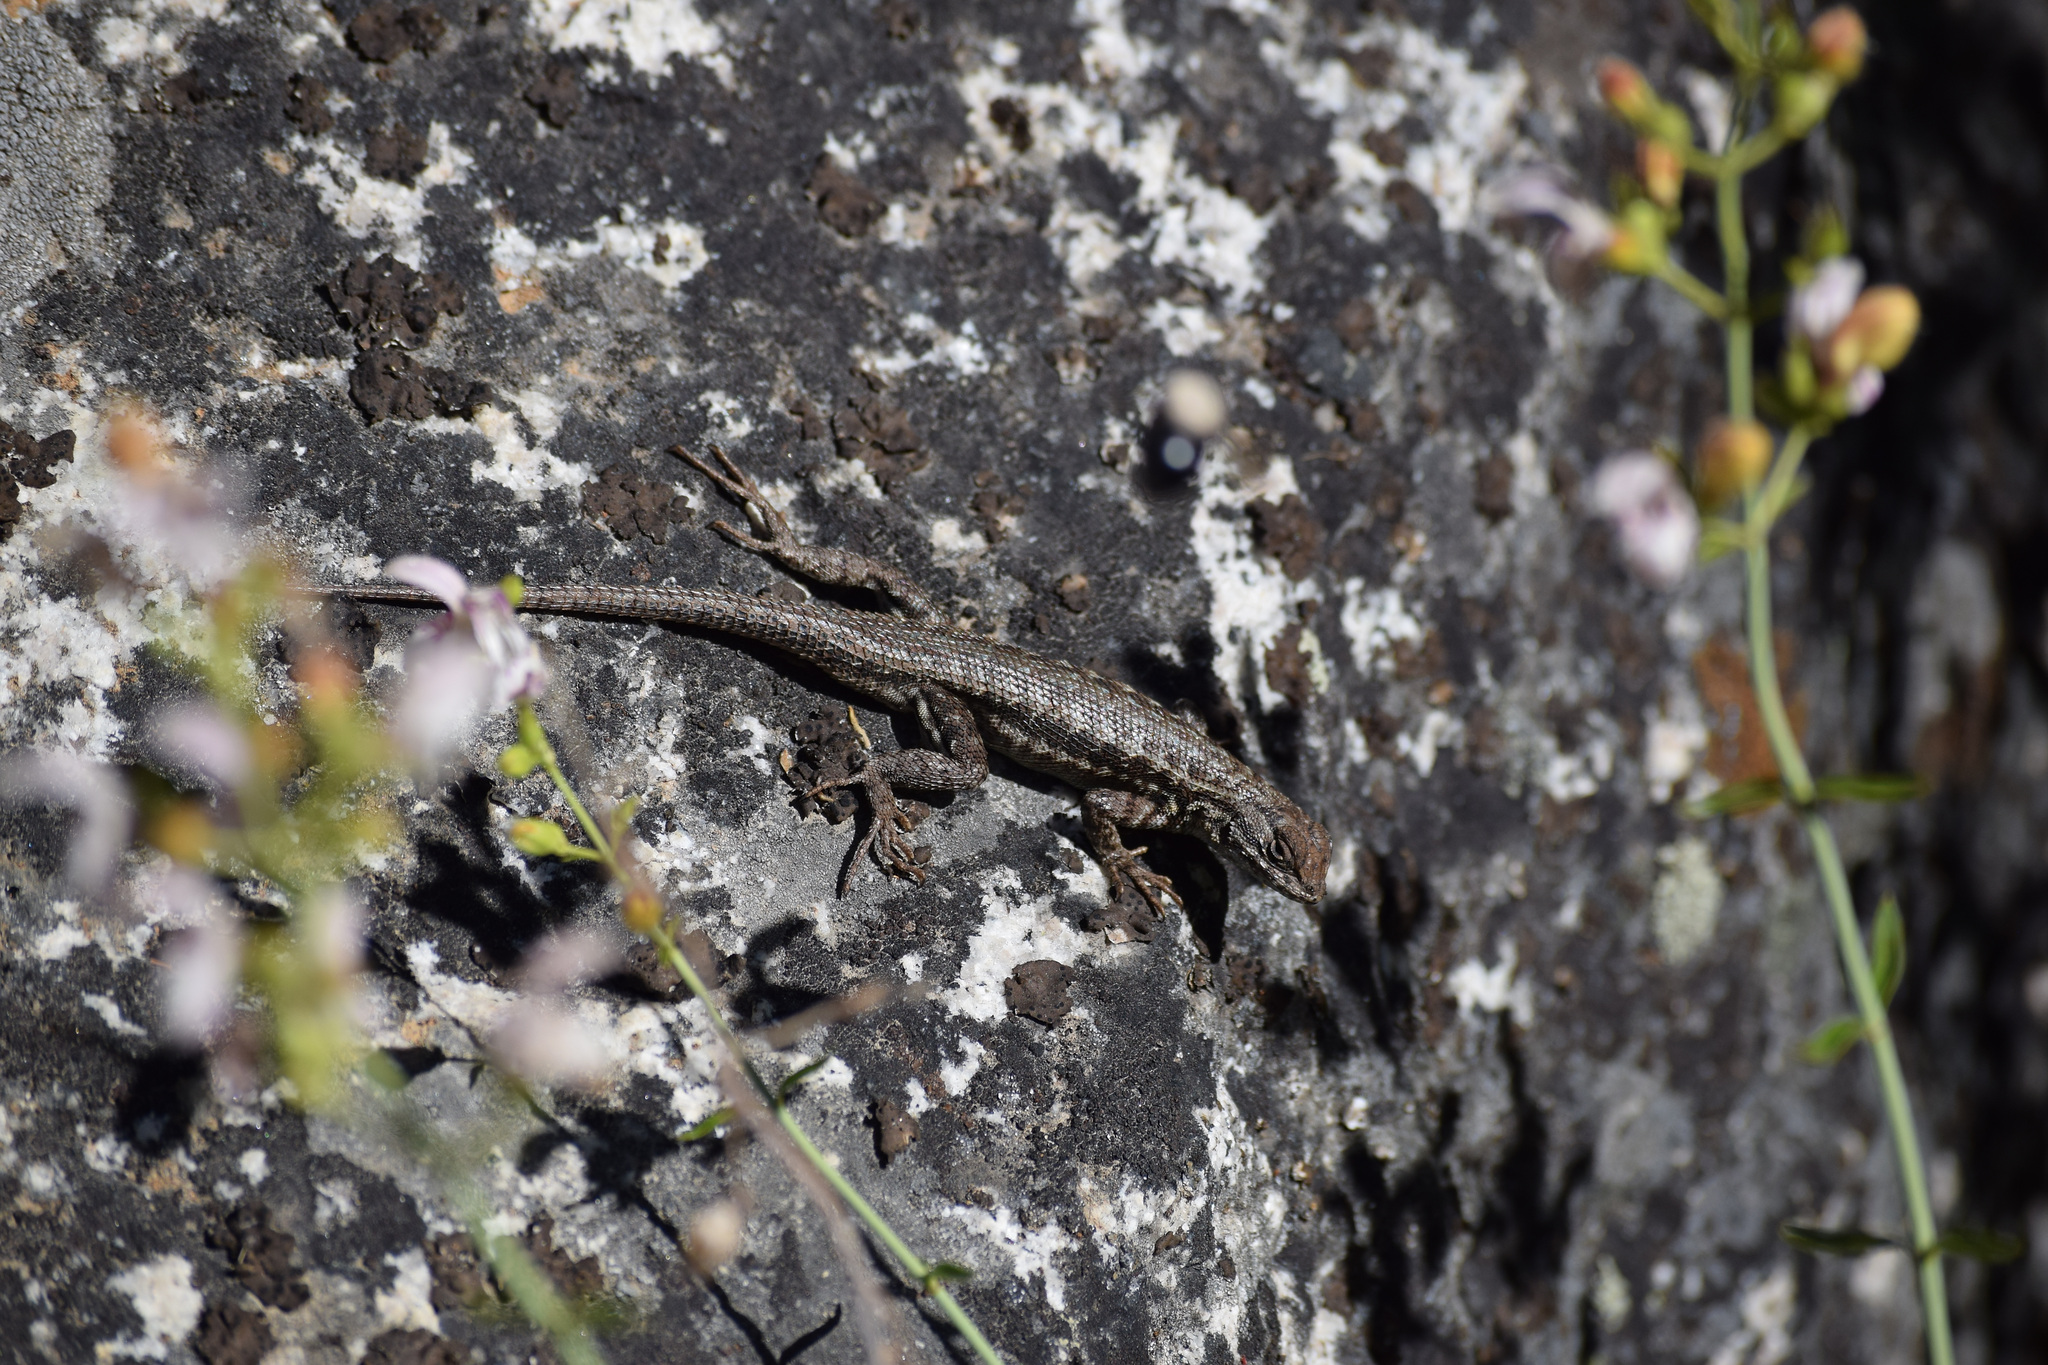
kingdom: Animalia
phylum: Chordata
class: Squamata
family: Phrynosomatidae
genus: Sceloporus
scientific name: Sceloporus graciosus
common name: Sagebrush lizard
